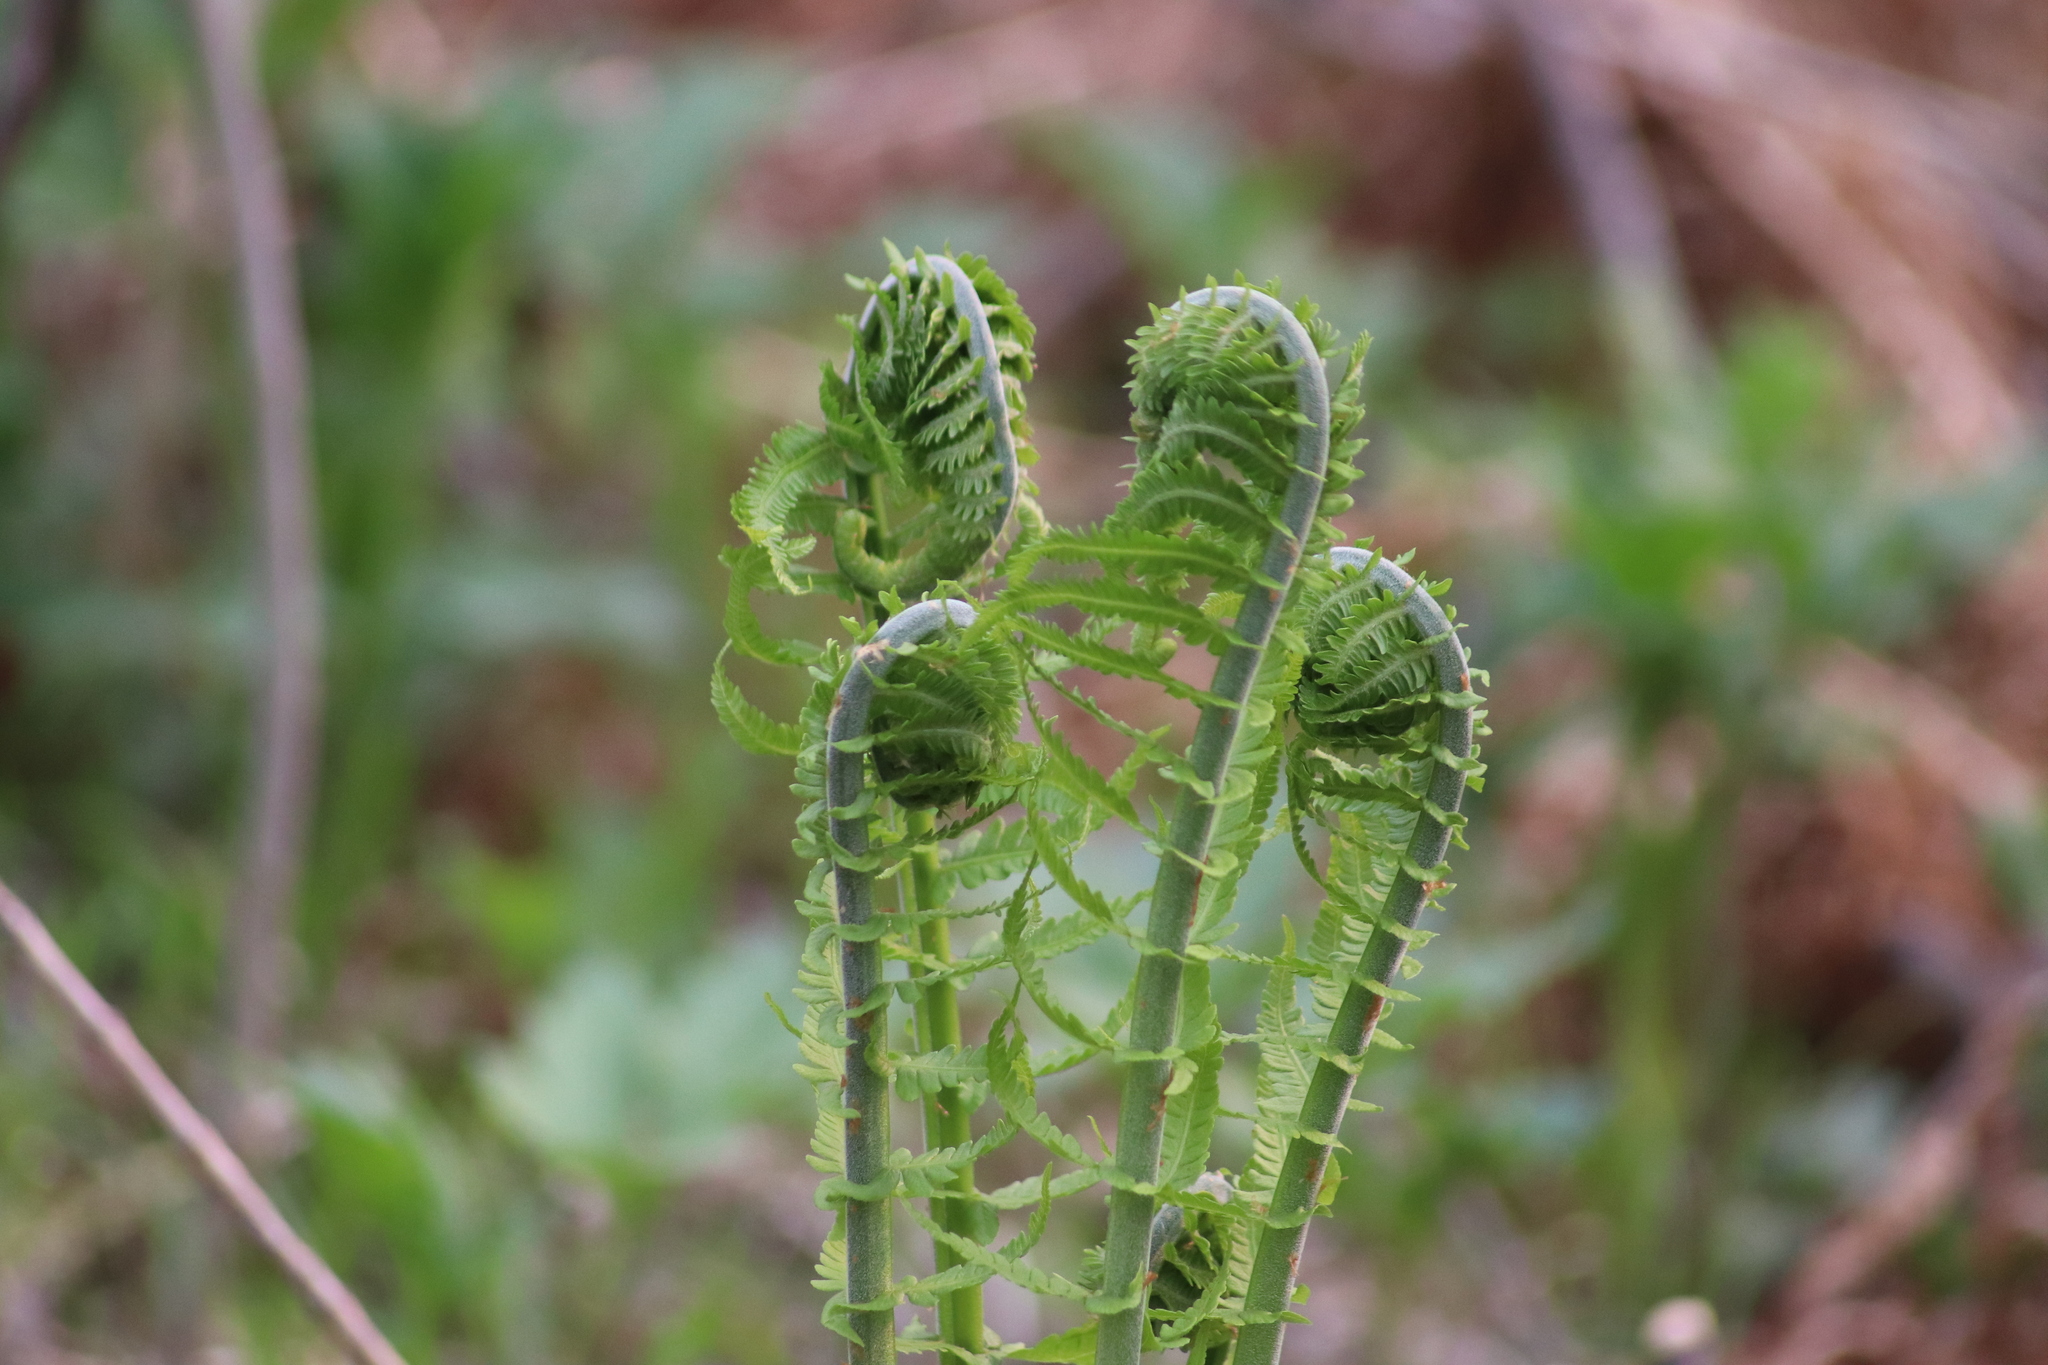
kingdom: Plantae
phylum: Tracheophyta
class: Polypodiopsida
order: Polypodiales
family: Onocleaceae
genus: Matteuccia
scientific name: Matteuccia struthiopteris
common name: Ostrich fern
